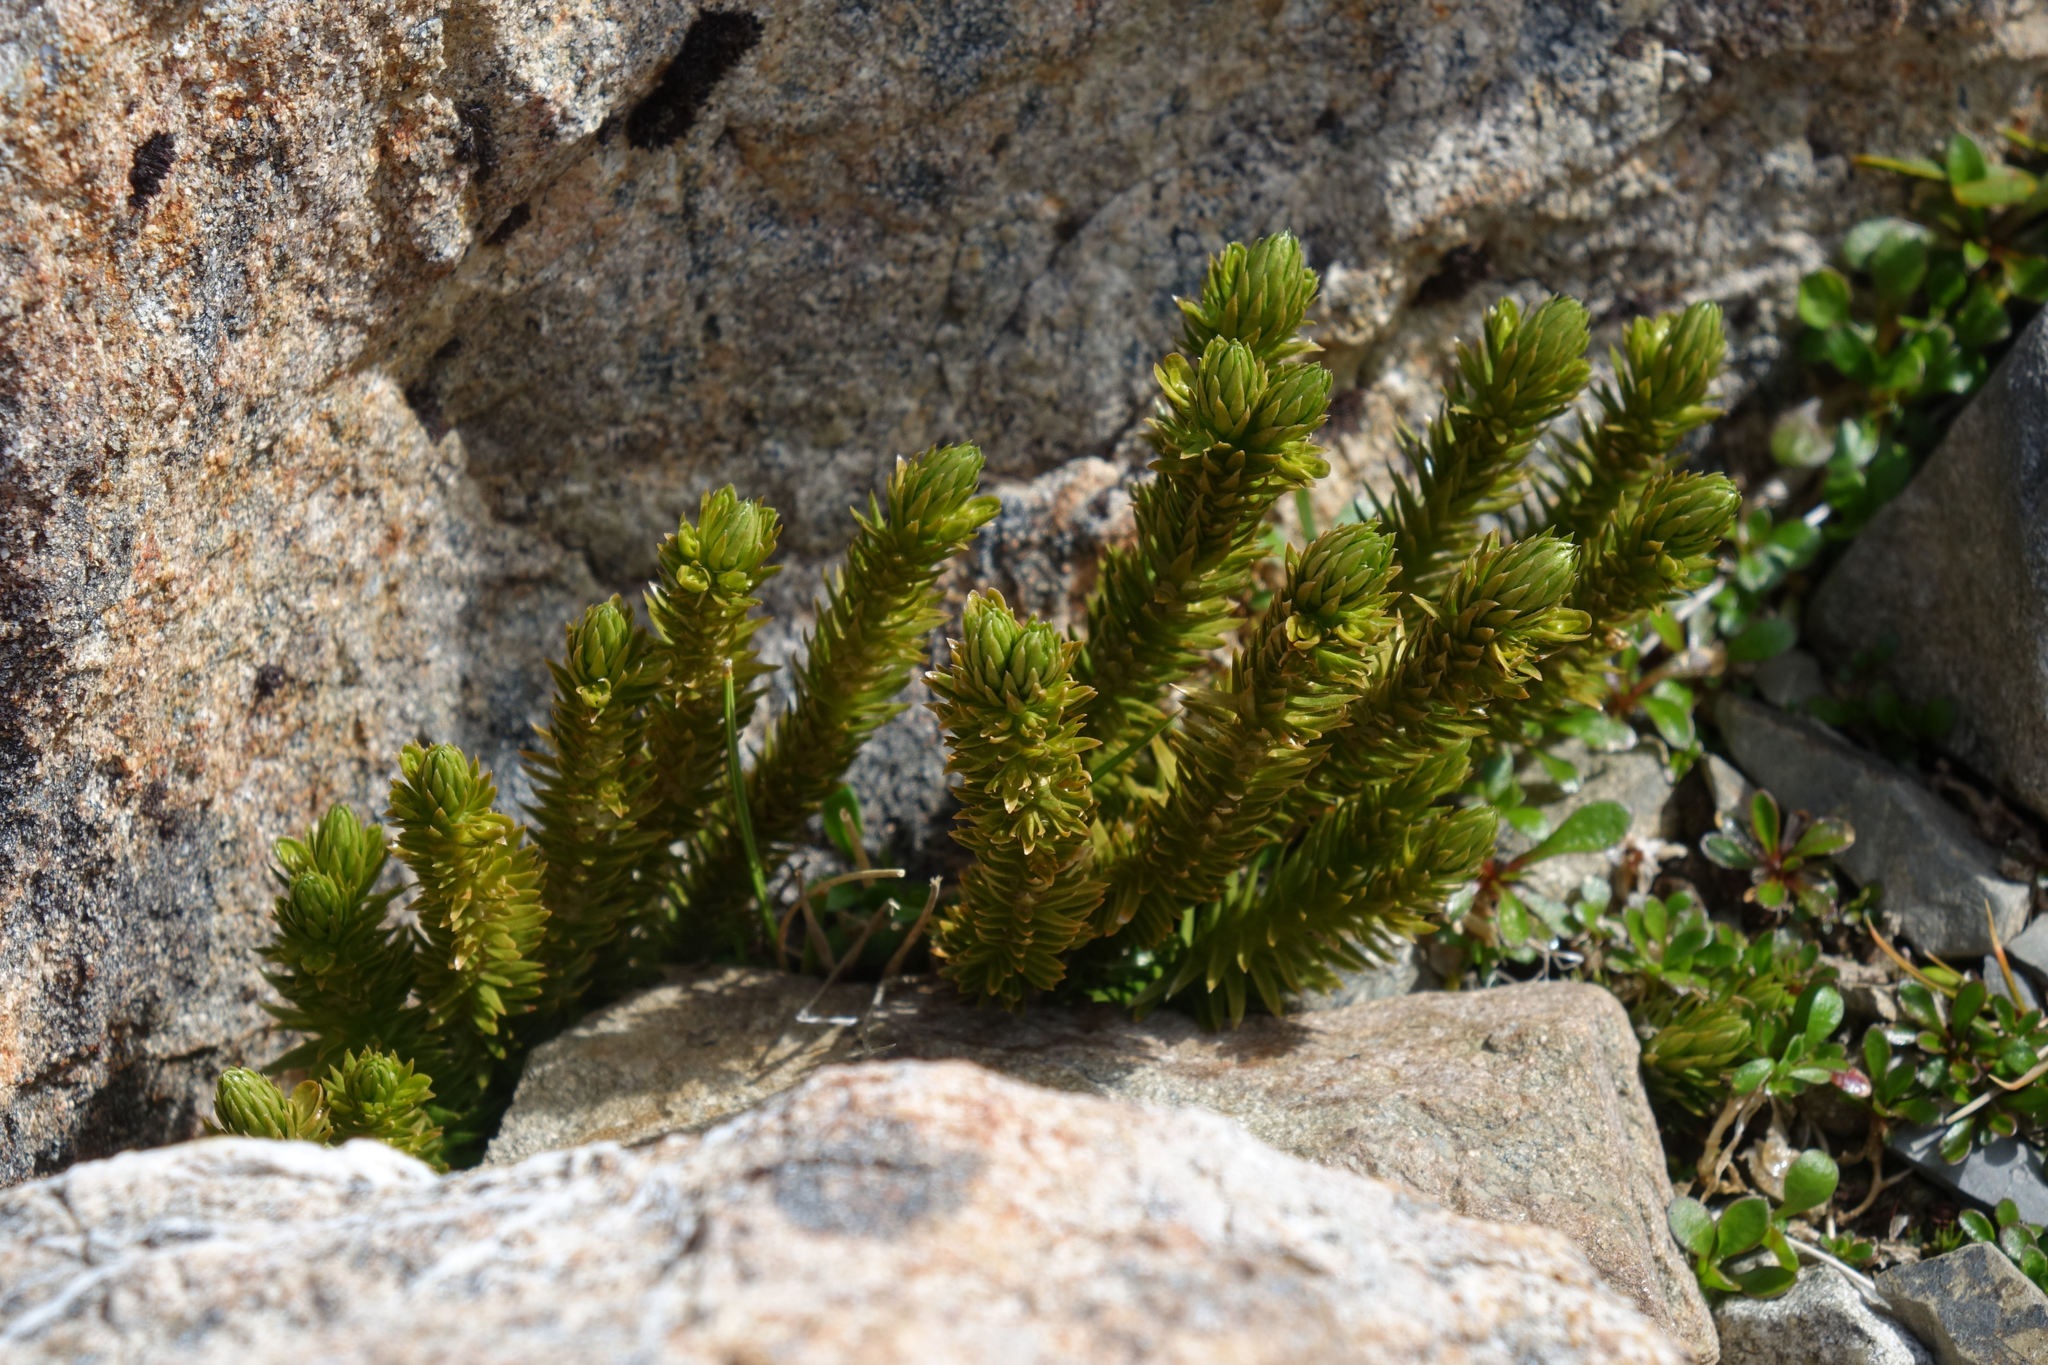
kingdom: Plantae
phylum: Tracheophyta
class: Lycopodiopsida
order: Lycopodiales
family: Lycopodiaceae
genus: Huperzia
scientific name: Huperzia australiana
